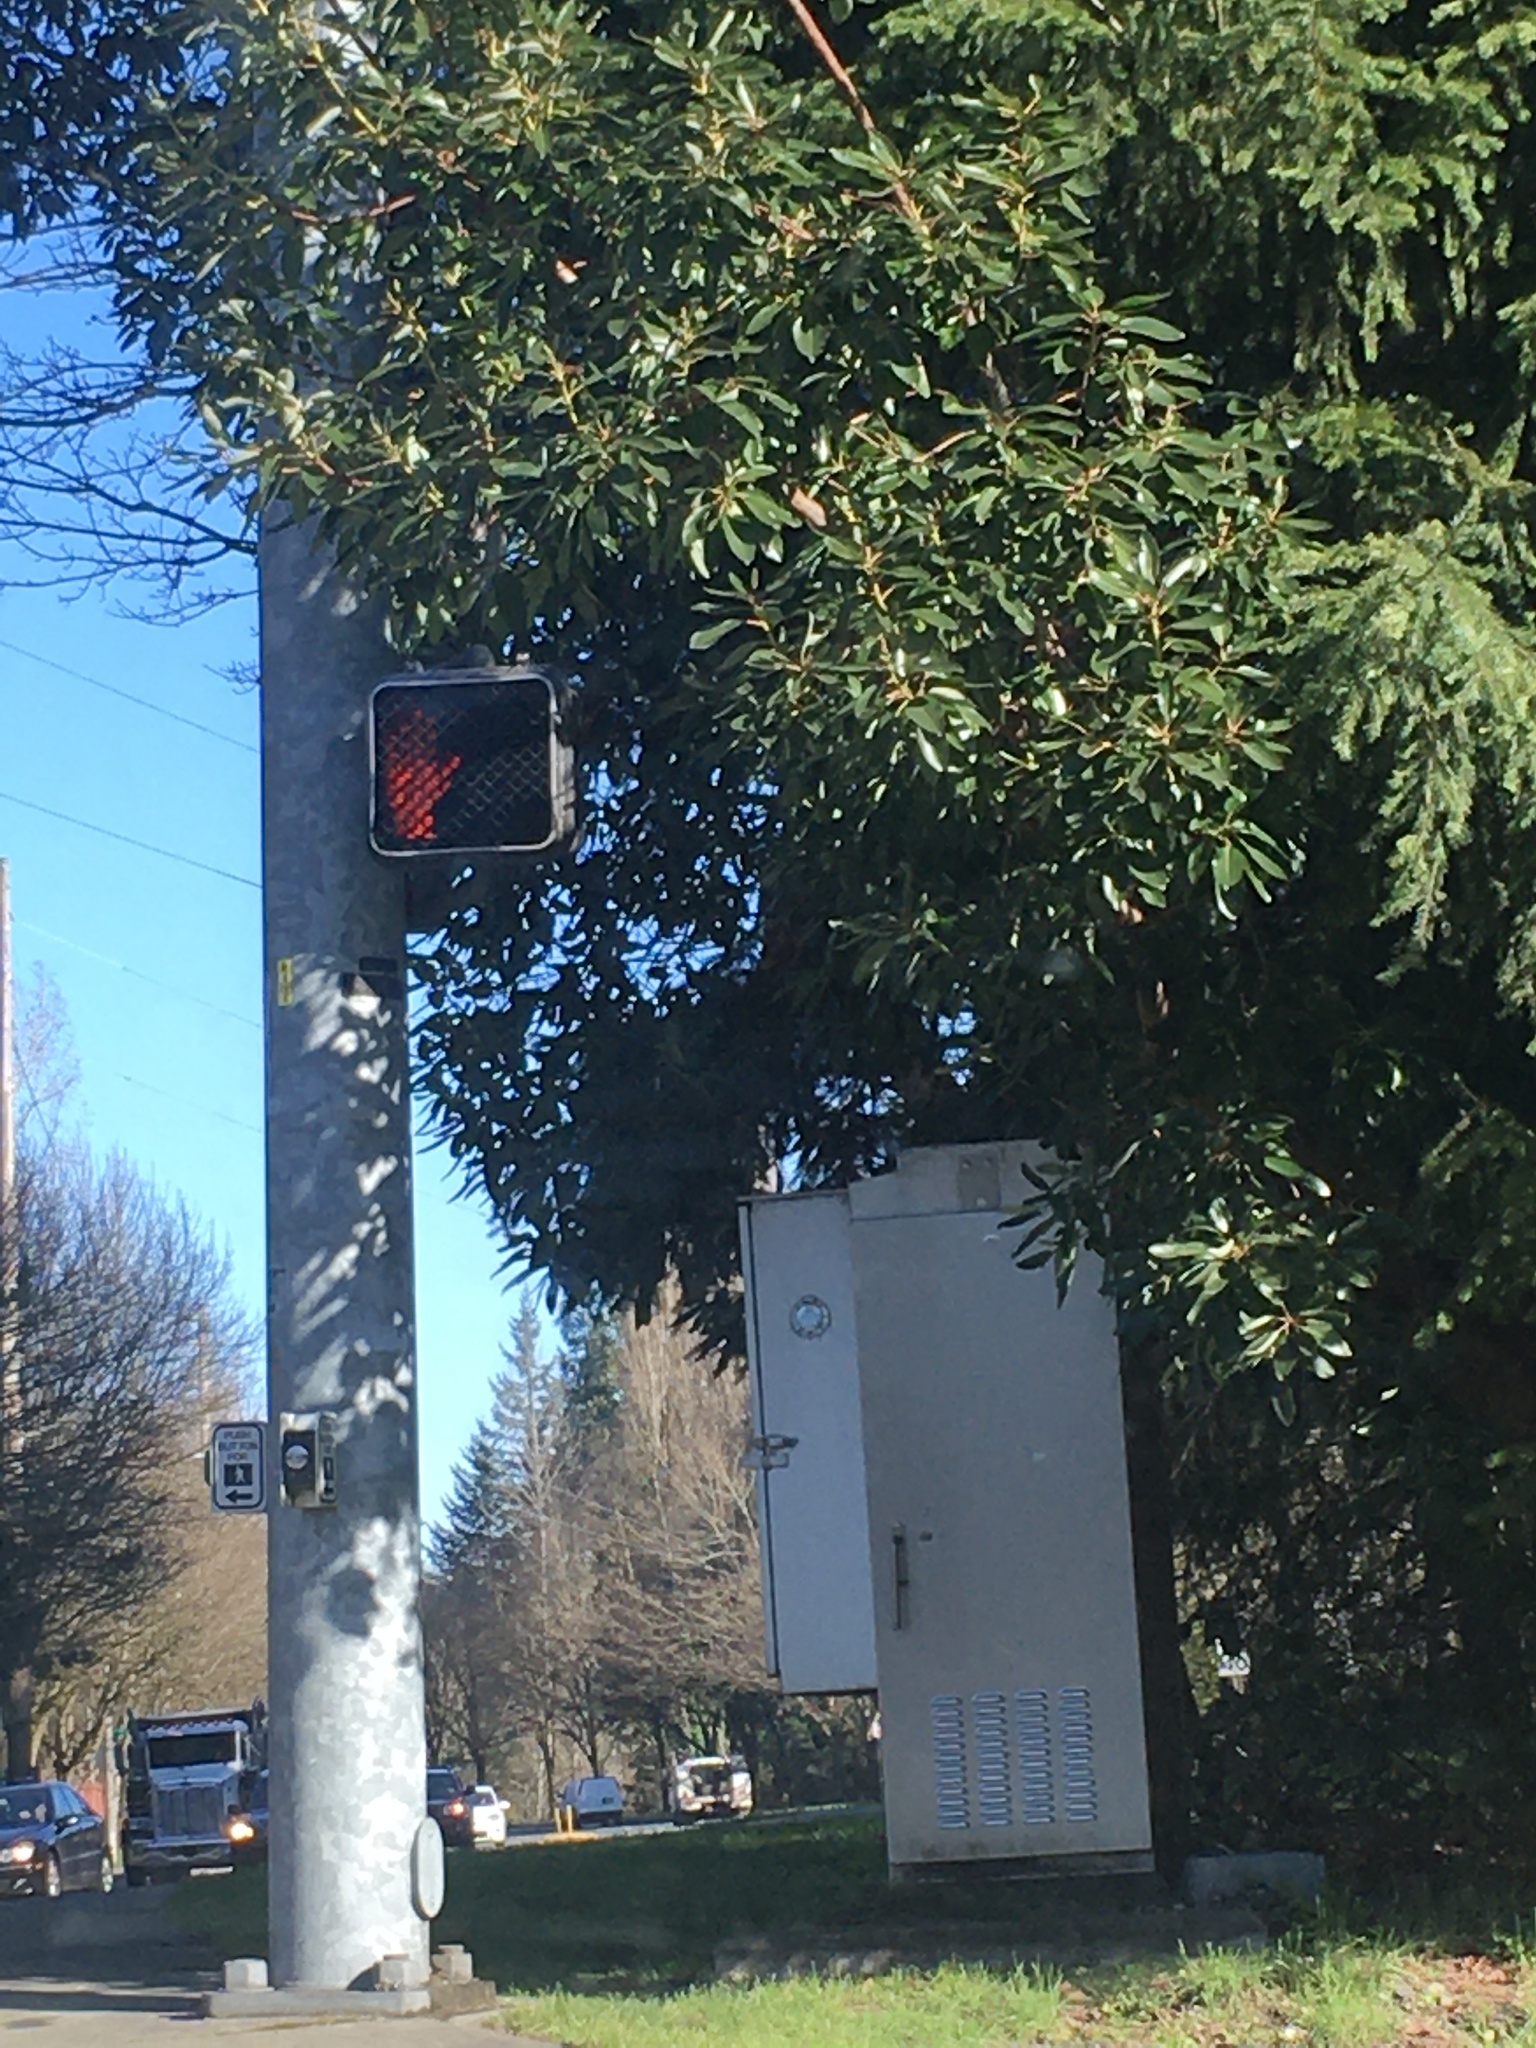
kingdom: Plantae
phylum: Tracheophyta
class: Magnoliopsida
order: Ericales
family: Ericaceae
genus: Arbutus
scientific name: Arbutus menziesii
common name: Pacific madrone
